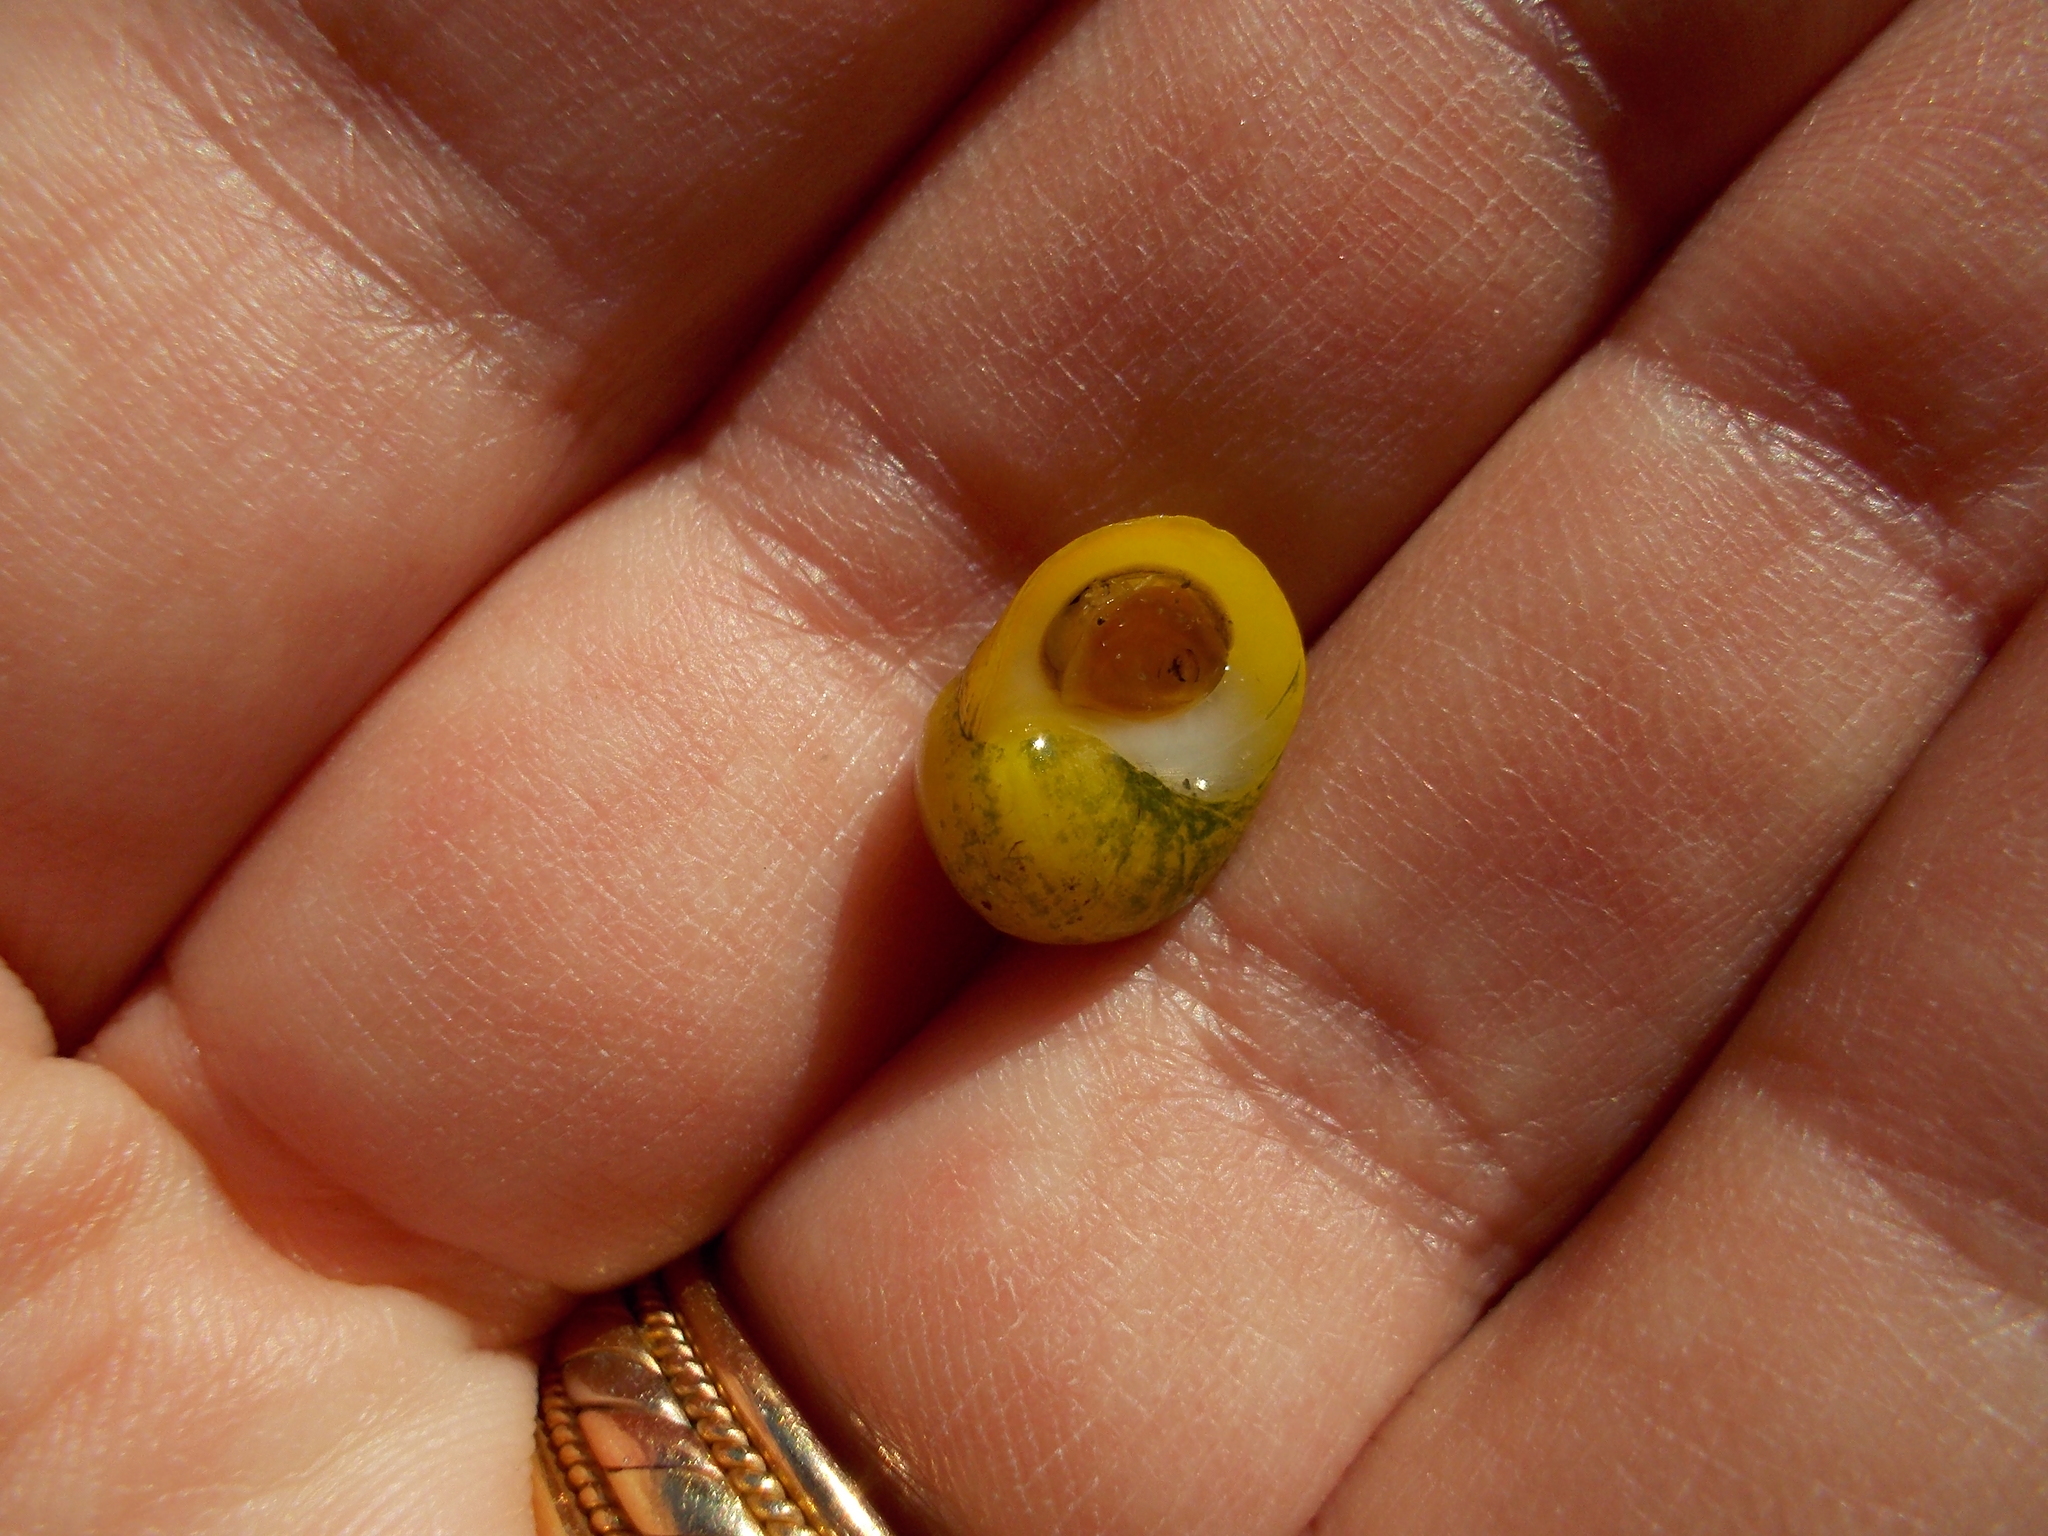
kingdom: Animalia
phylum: Mollusca
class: Gastropoda
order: Littorinimorpha
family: Littorinidae
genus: Littorina
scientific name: Littorina obtusata
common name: Flat periwinkle
